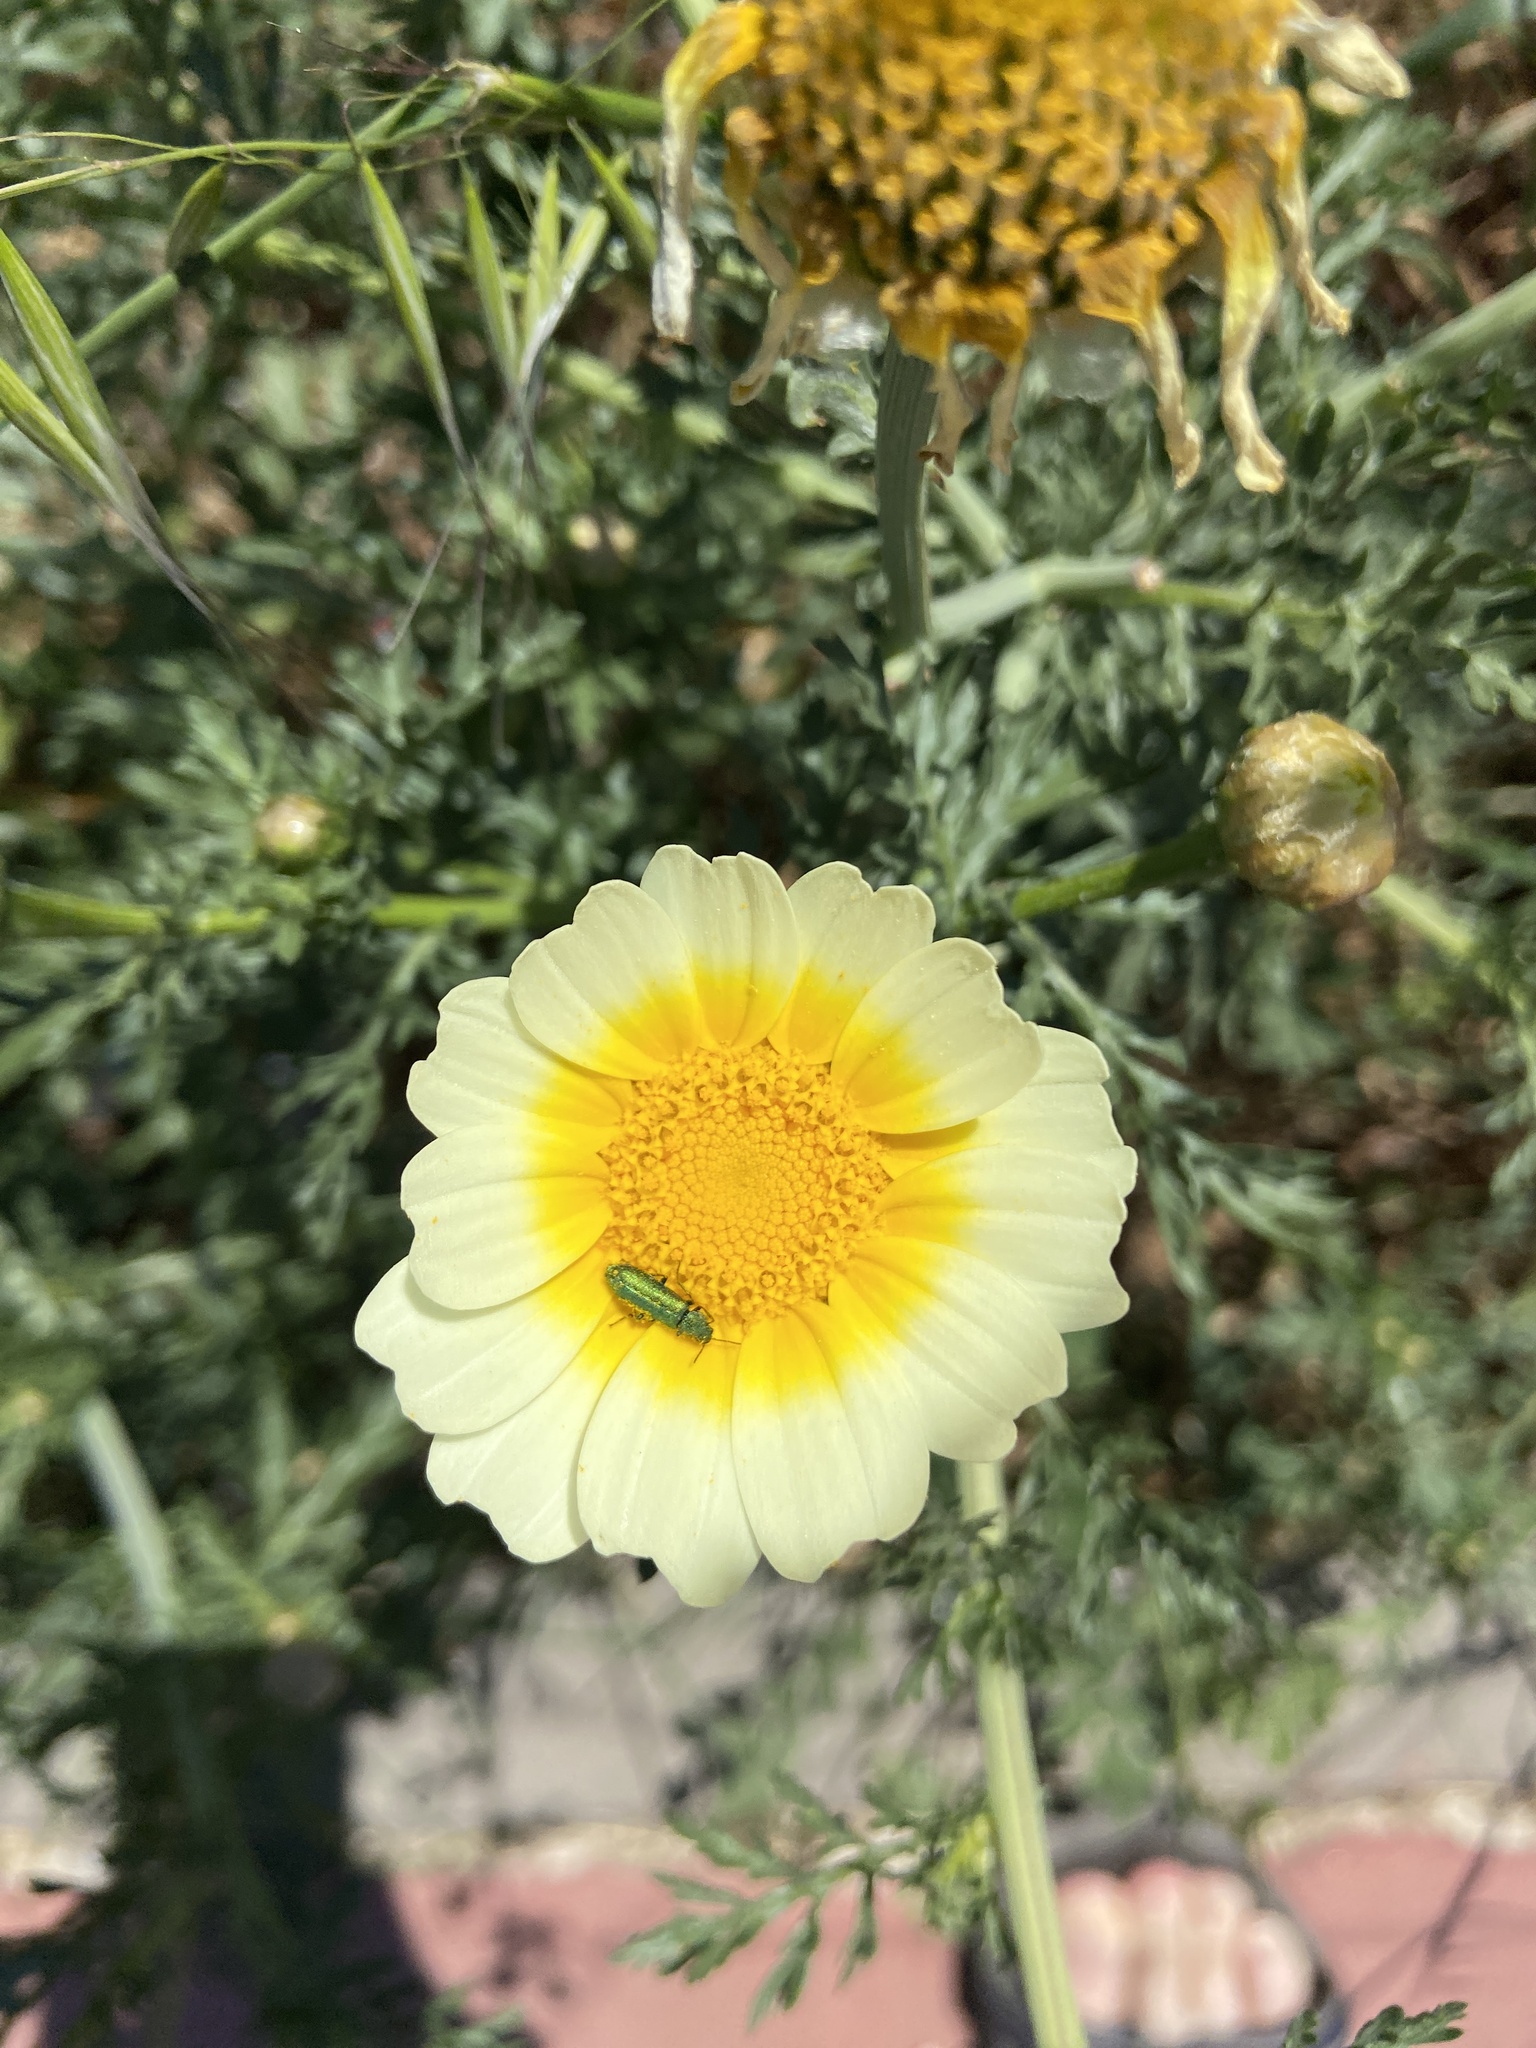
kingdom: Plantae
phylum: Tracheophyta
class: Magnoliopsida
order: Asterales
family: Asteraceae
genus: Glebionis
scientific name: Glebionis coronaria
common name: Crowndaisy
